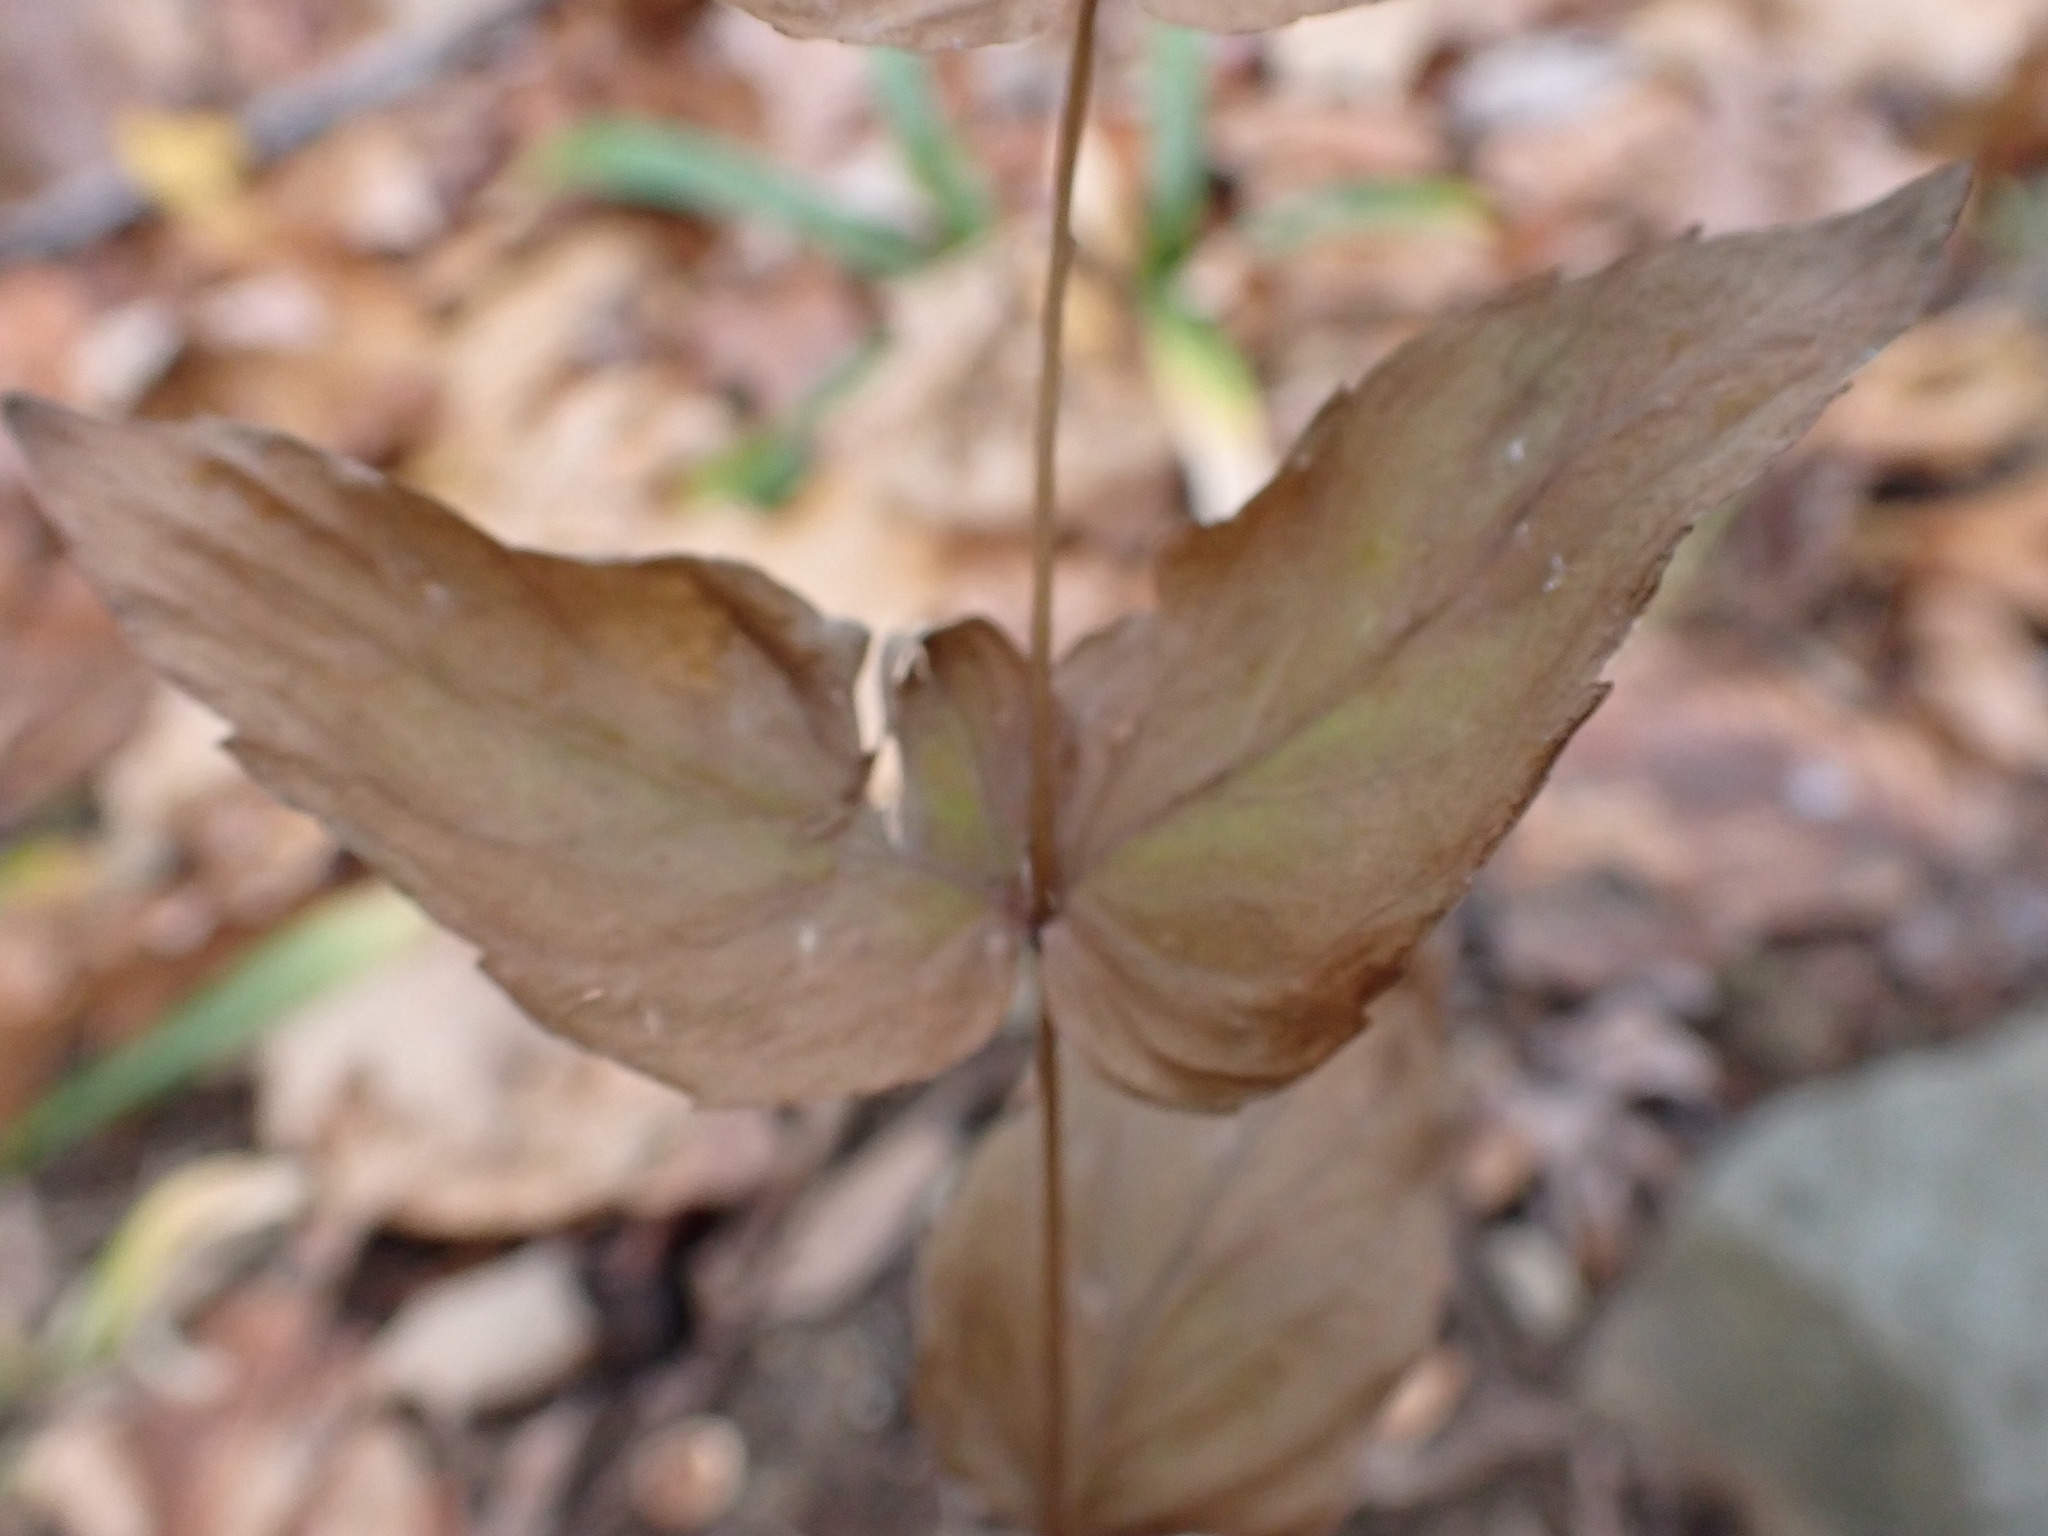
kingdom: Plantae
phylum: Tracheophyta
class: Magnoliopsida
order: Lamiales
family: Lamiaceae
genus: Cunila
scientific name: Cunila origanoides
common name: American dittany
